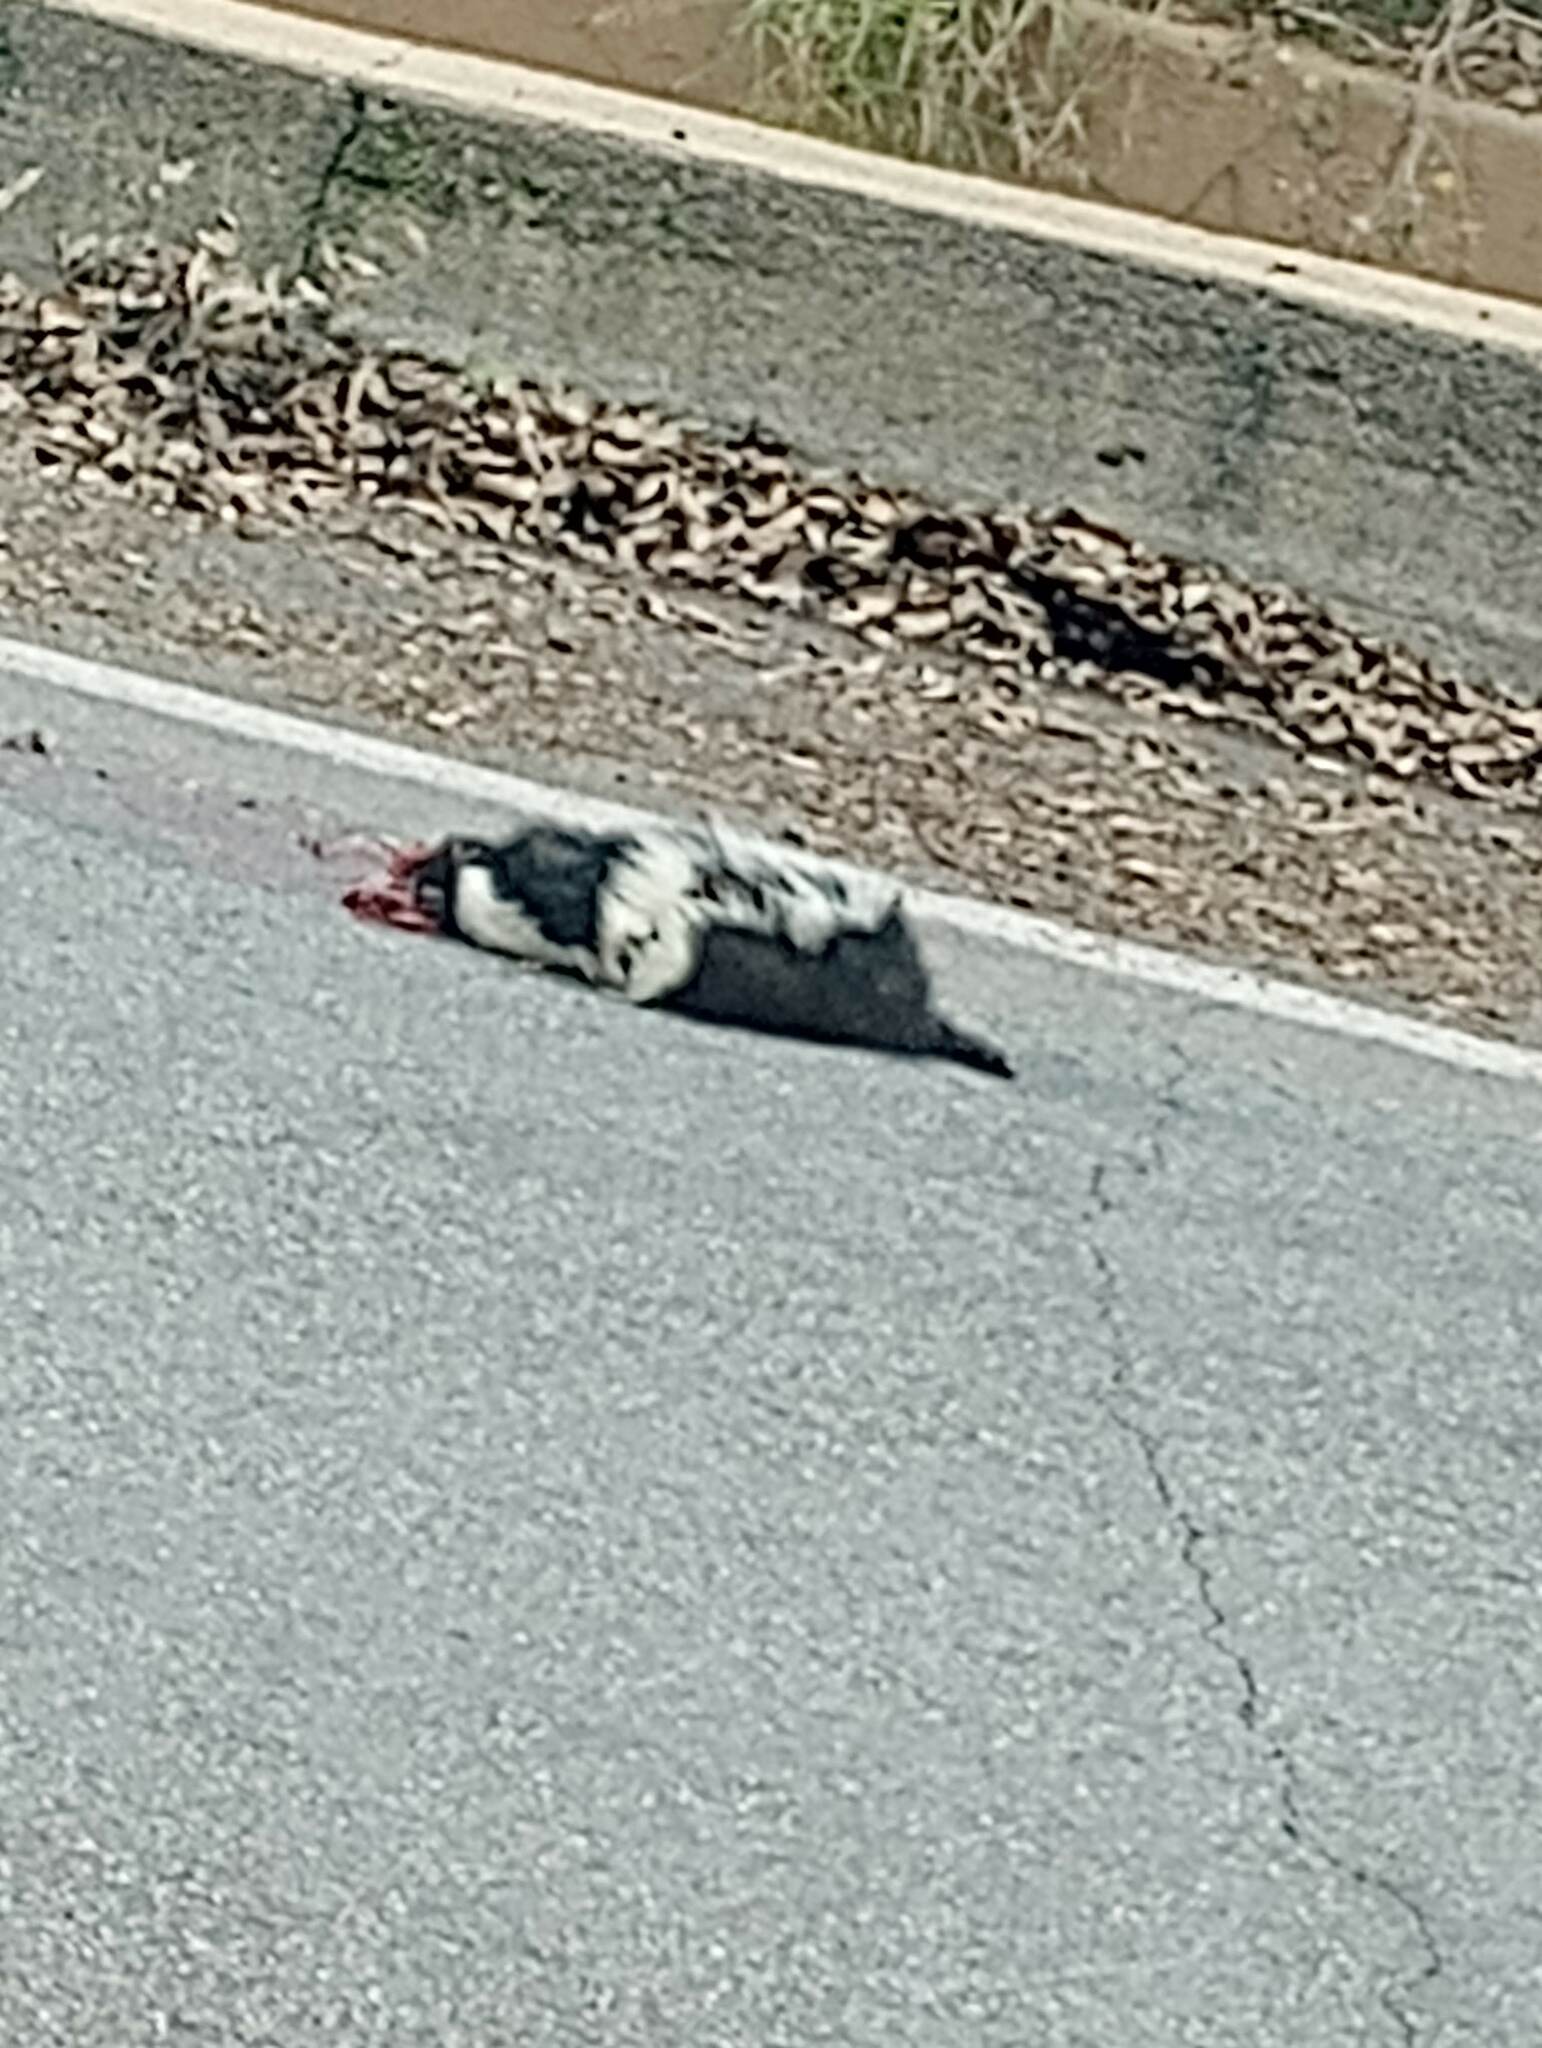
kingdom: Animalia
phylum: Chordata
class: Mammalia
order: Carnivora
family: Mephitidae
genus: Mephitis
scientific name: Mephitis mephitis
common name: Striped skunk
